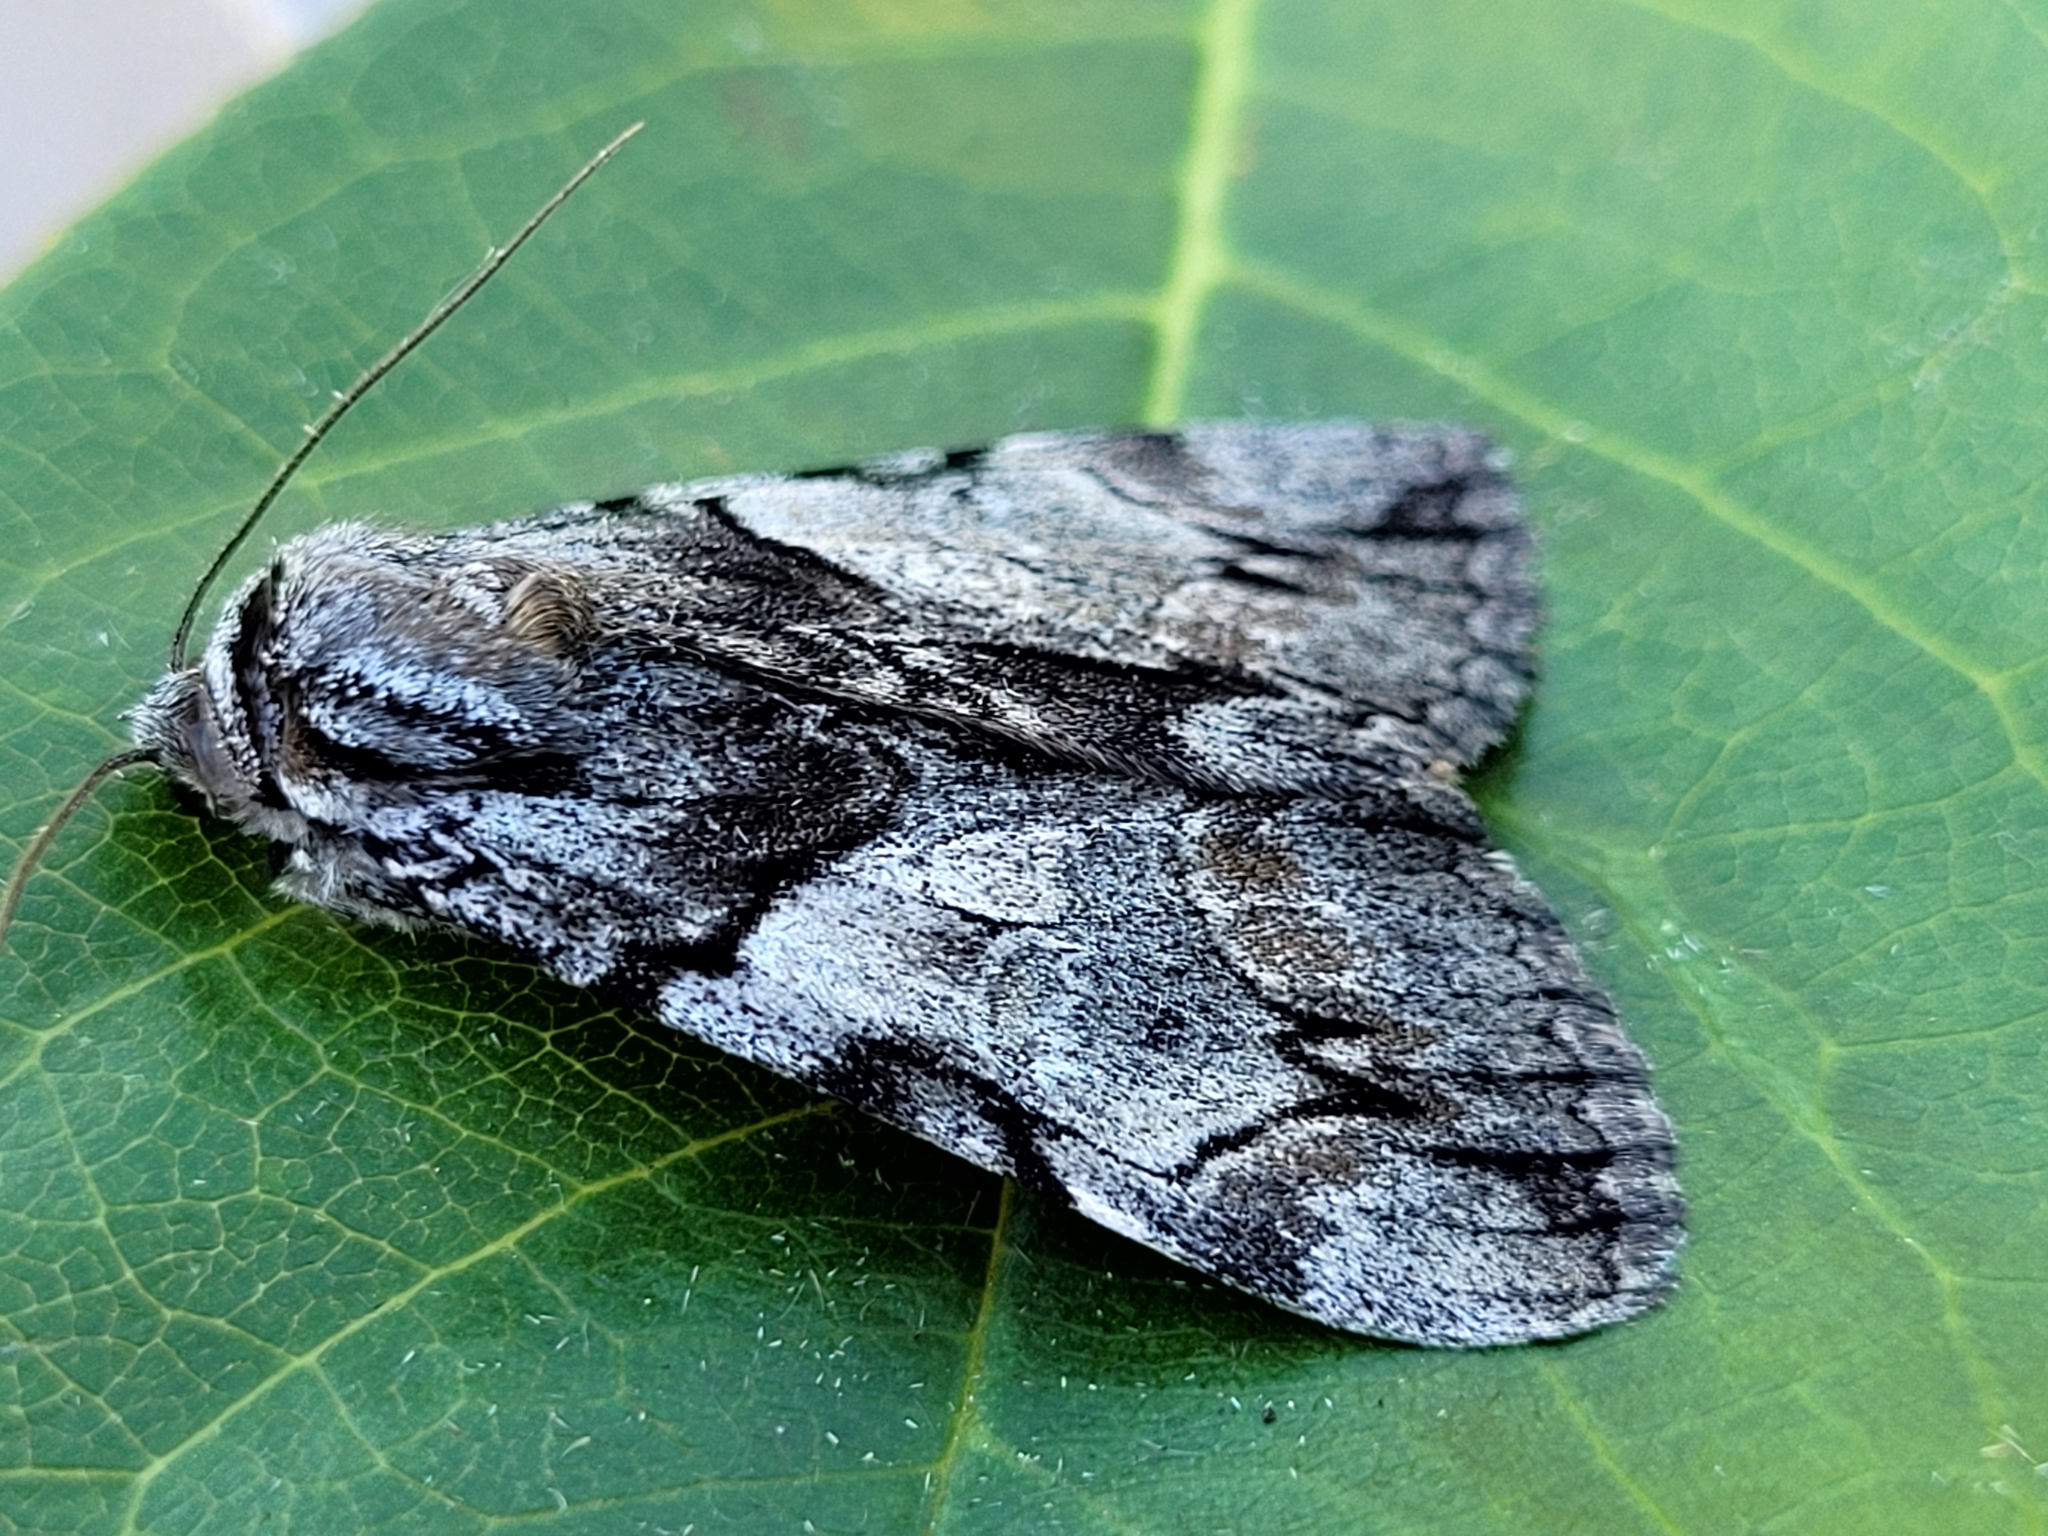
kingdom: Animalia
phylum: Arthropoda
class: Insecta
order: Lepidoptera
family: Erebidae
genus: Catocala
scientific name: Catocala blandula
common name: Charming underwing
